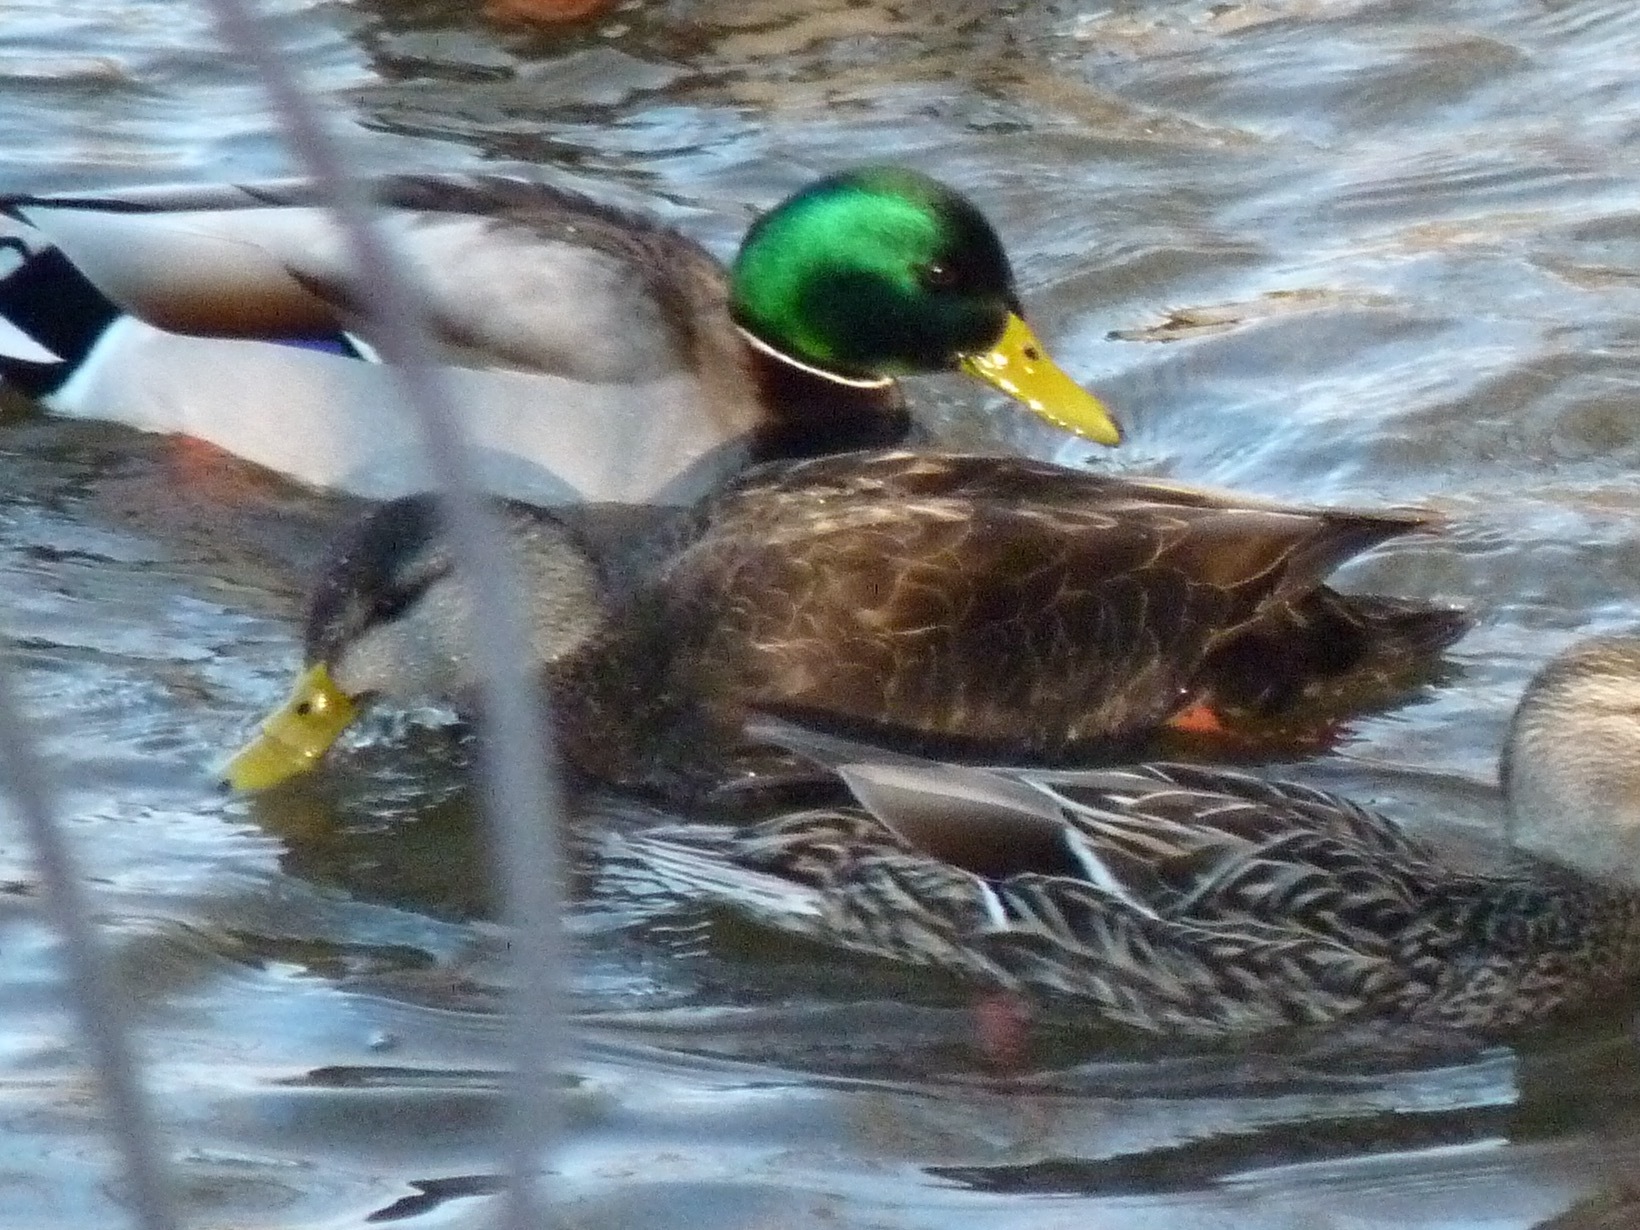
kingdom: Animalia
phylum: Chordata
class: Aves
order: Anseriformes
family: Anatidae
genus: Anas
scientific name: Anas rubripes
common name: American black duck
